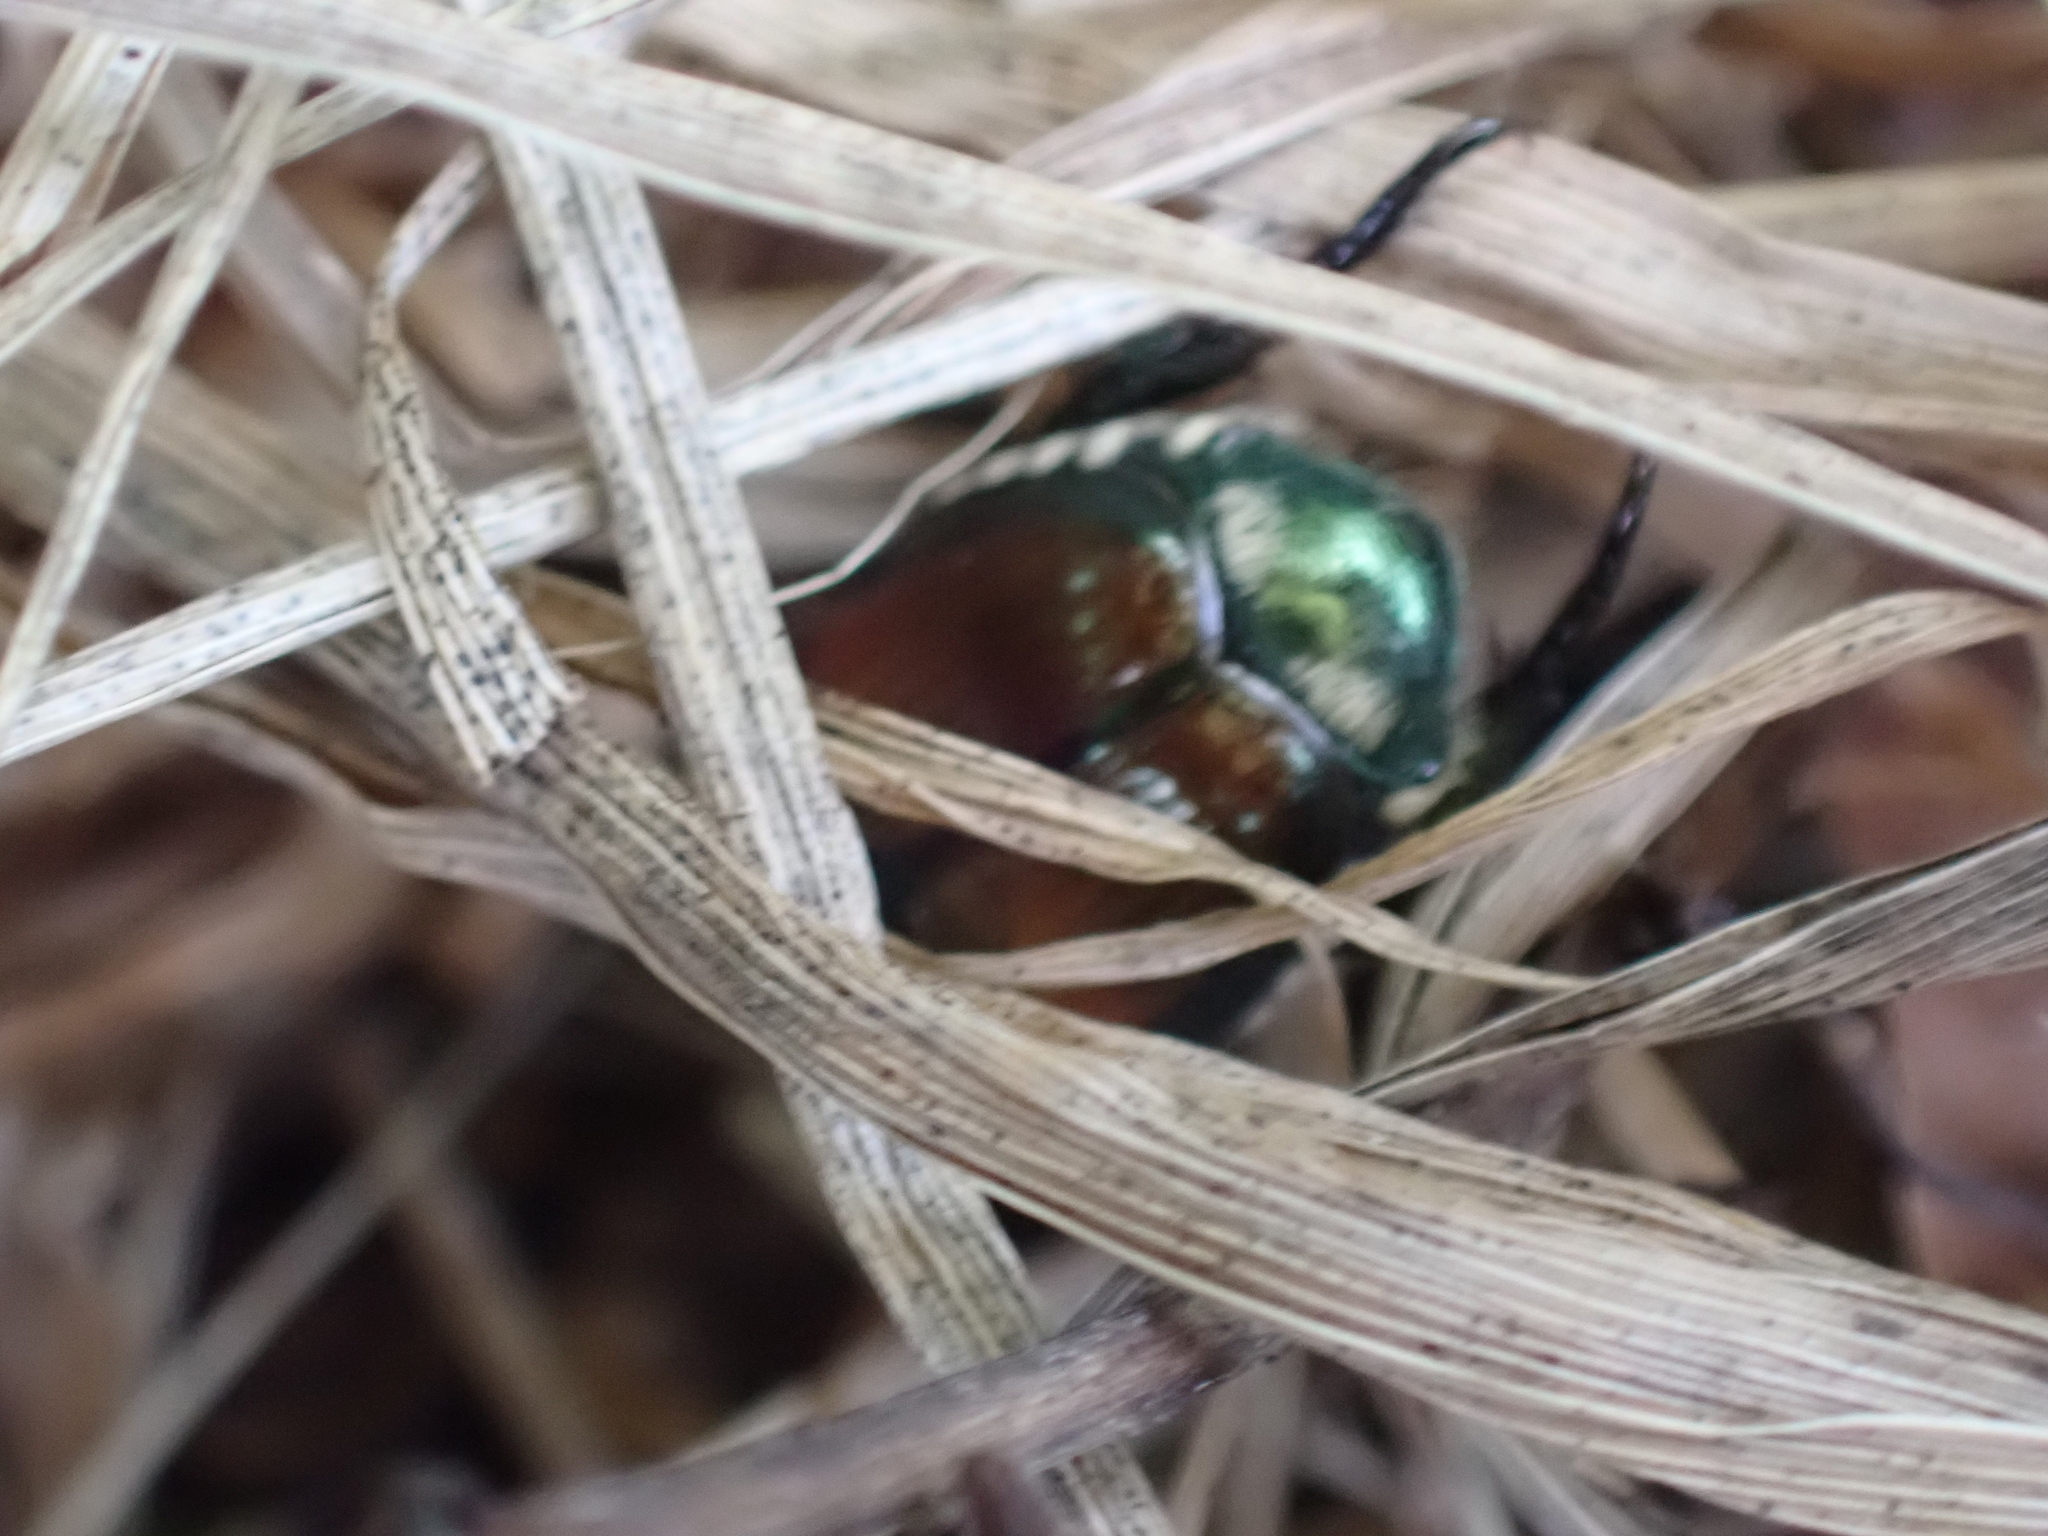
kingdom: Animalia
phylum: Arthropoda
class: Insecta
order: Coleoptera
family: Scarabaeidae
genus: Popillia
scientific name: Popillia japonica
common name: Japanese beetle
